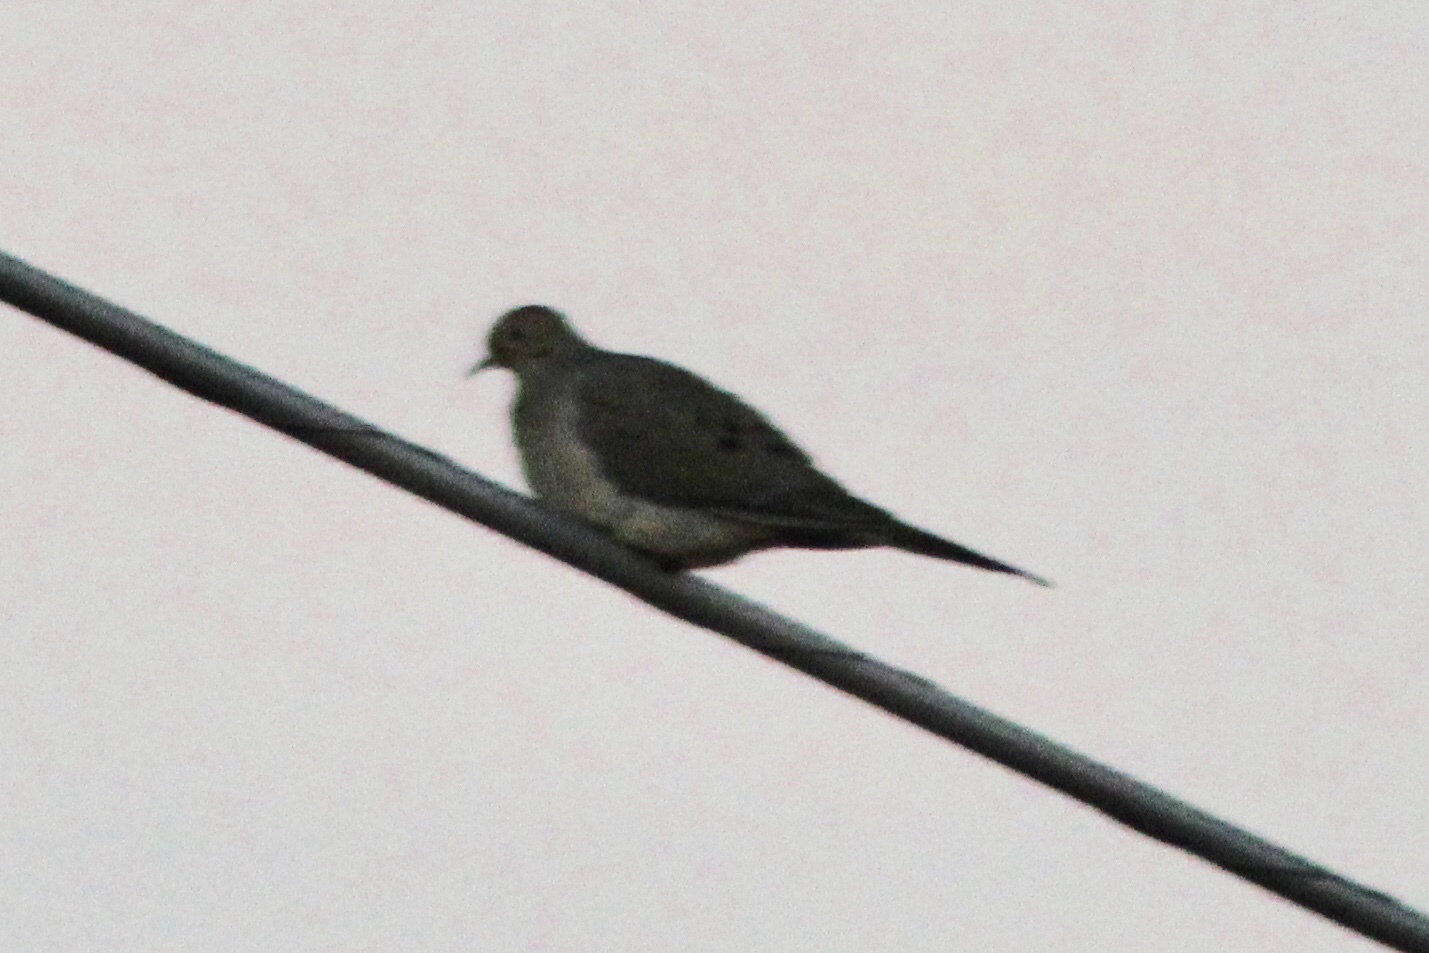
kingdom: Animalia
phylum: Chordata
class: Aves
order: Columbiformes
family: Columbidae
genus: Zenaida
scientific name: Zenaida macroura
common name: Mourning dove
